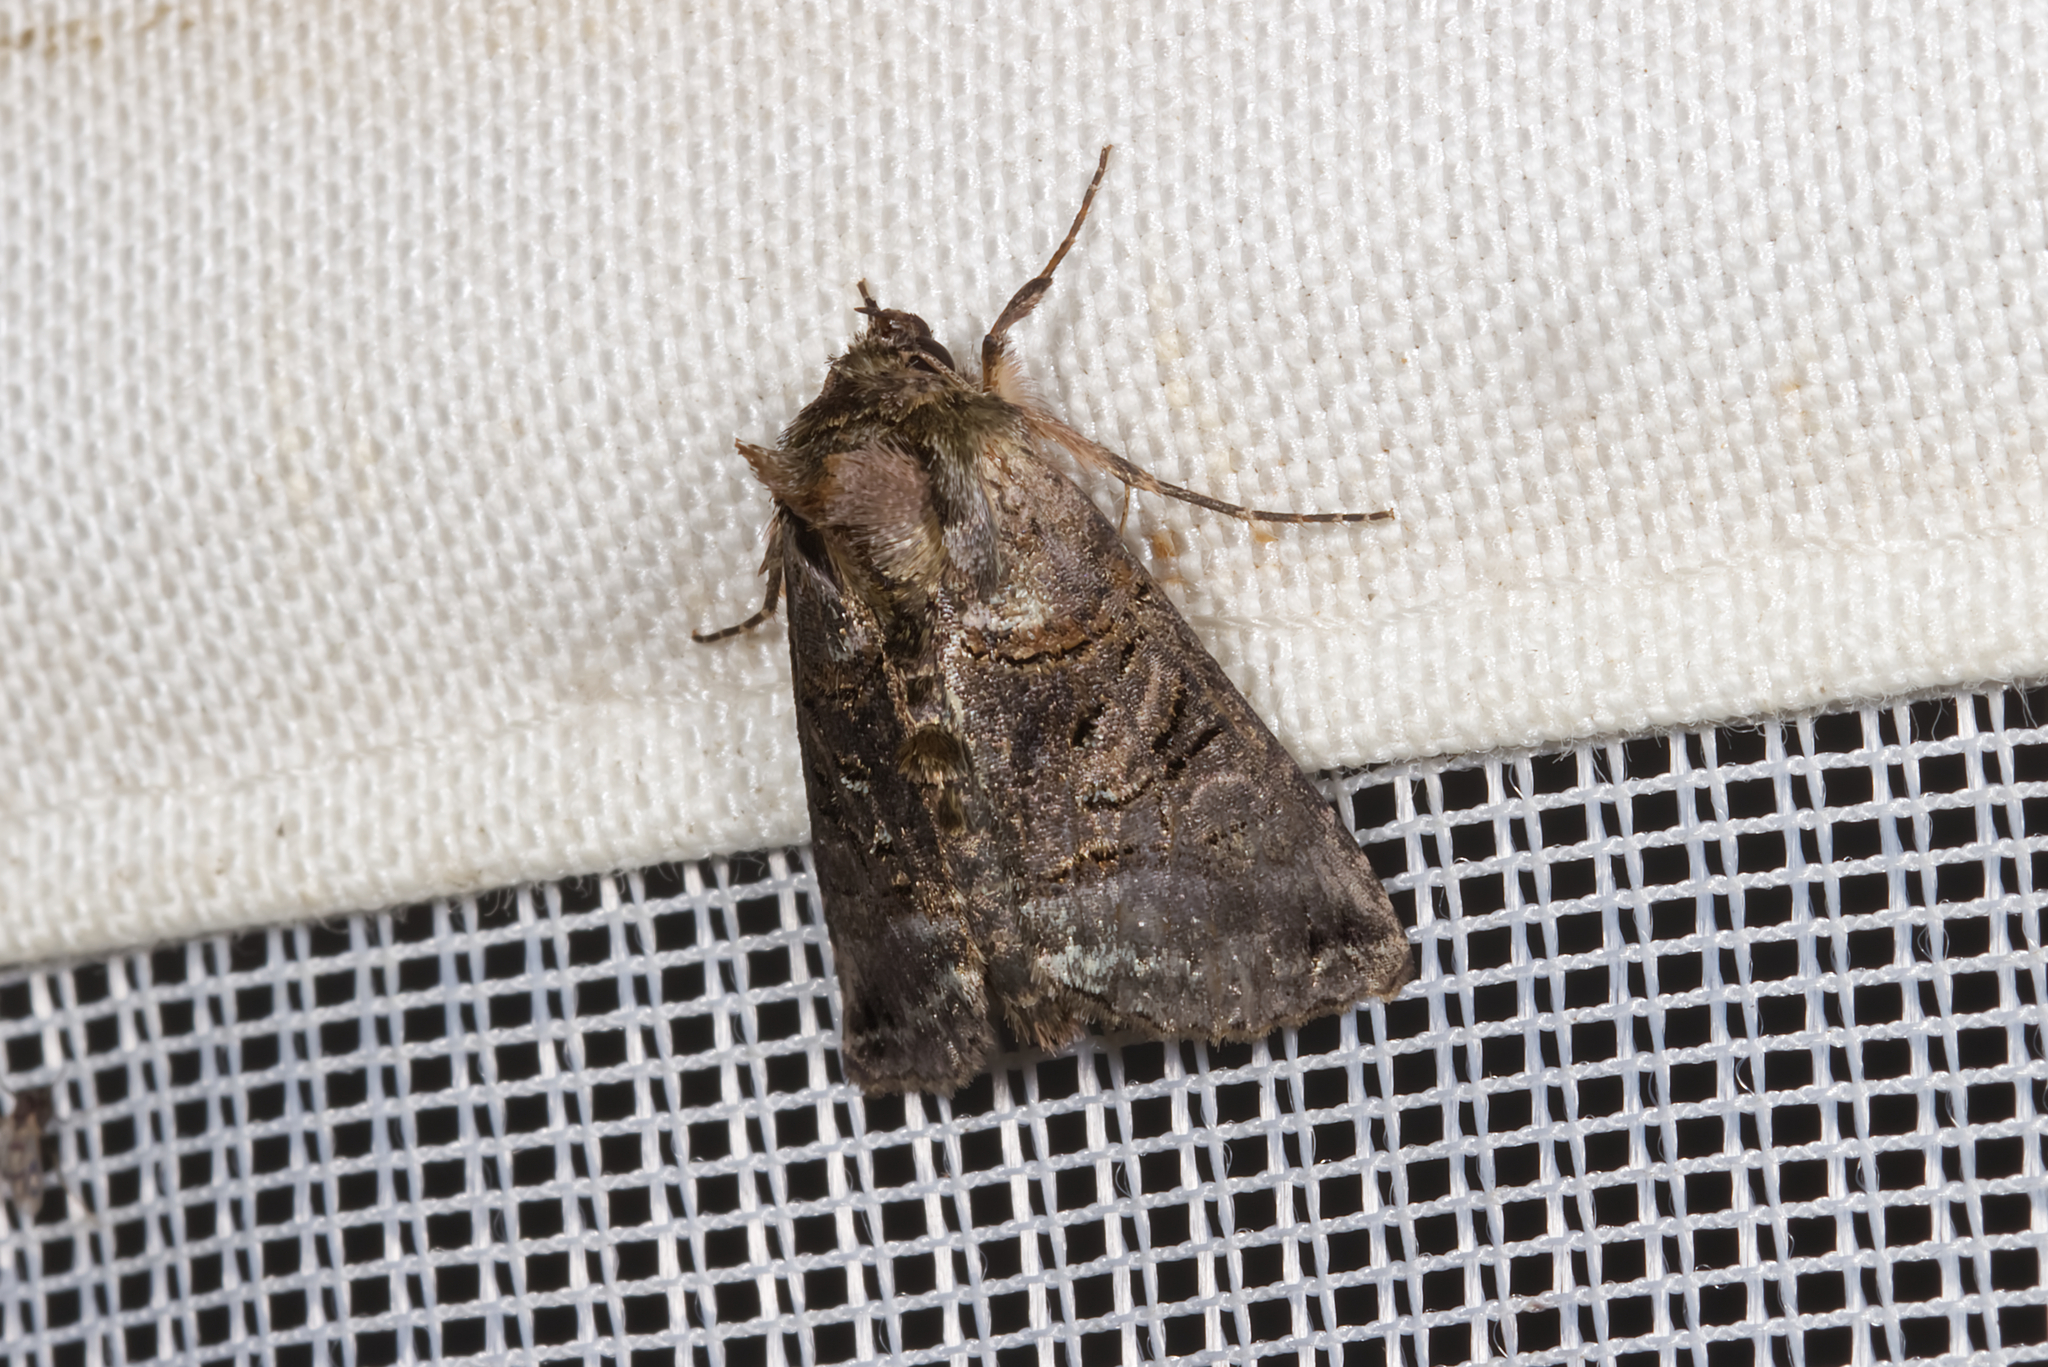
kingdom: Animalia
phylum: Arthropoda
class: Insecta
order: Lepidoptera
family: Noctuidae
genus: Abrostola
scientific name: Abrostola tripartita
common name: Spectacle
